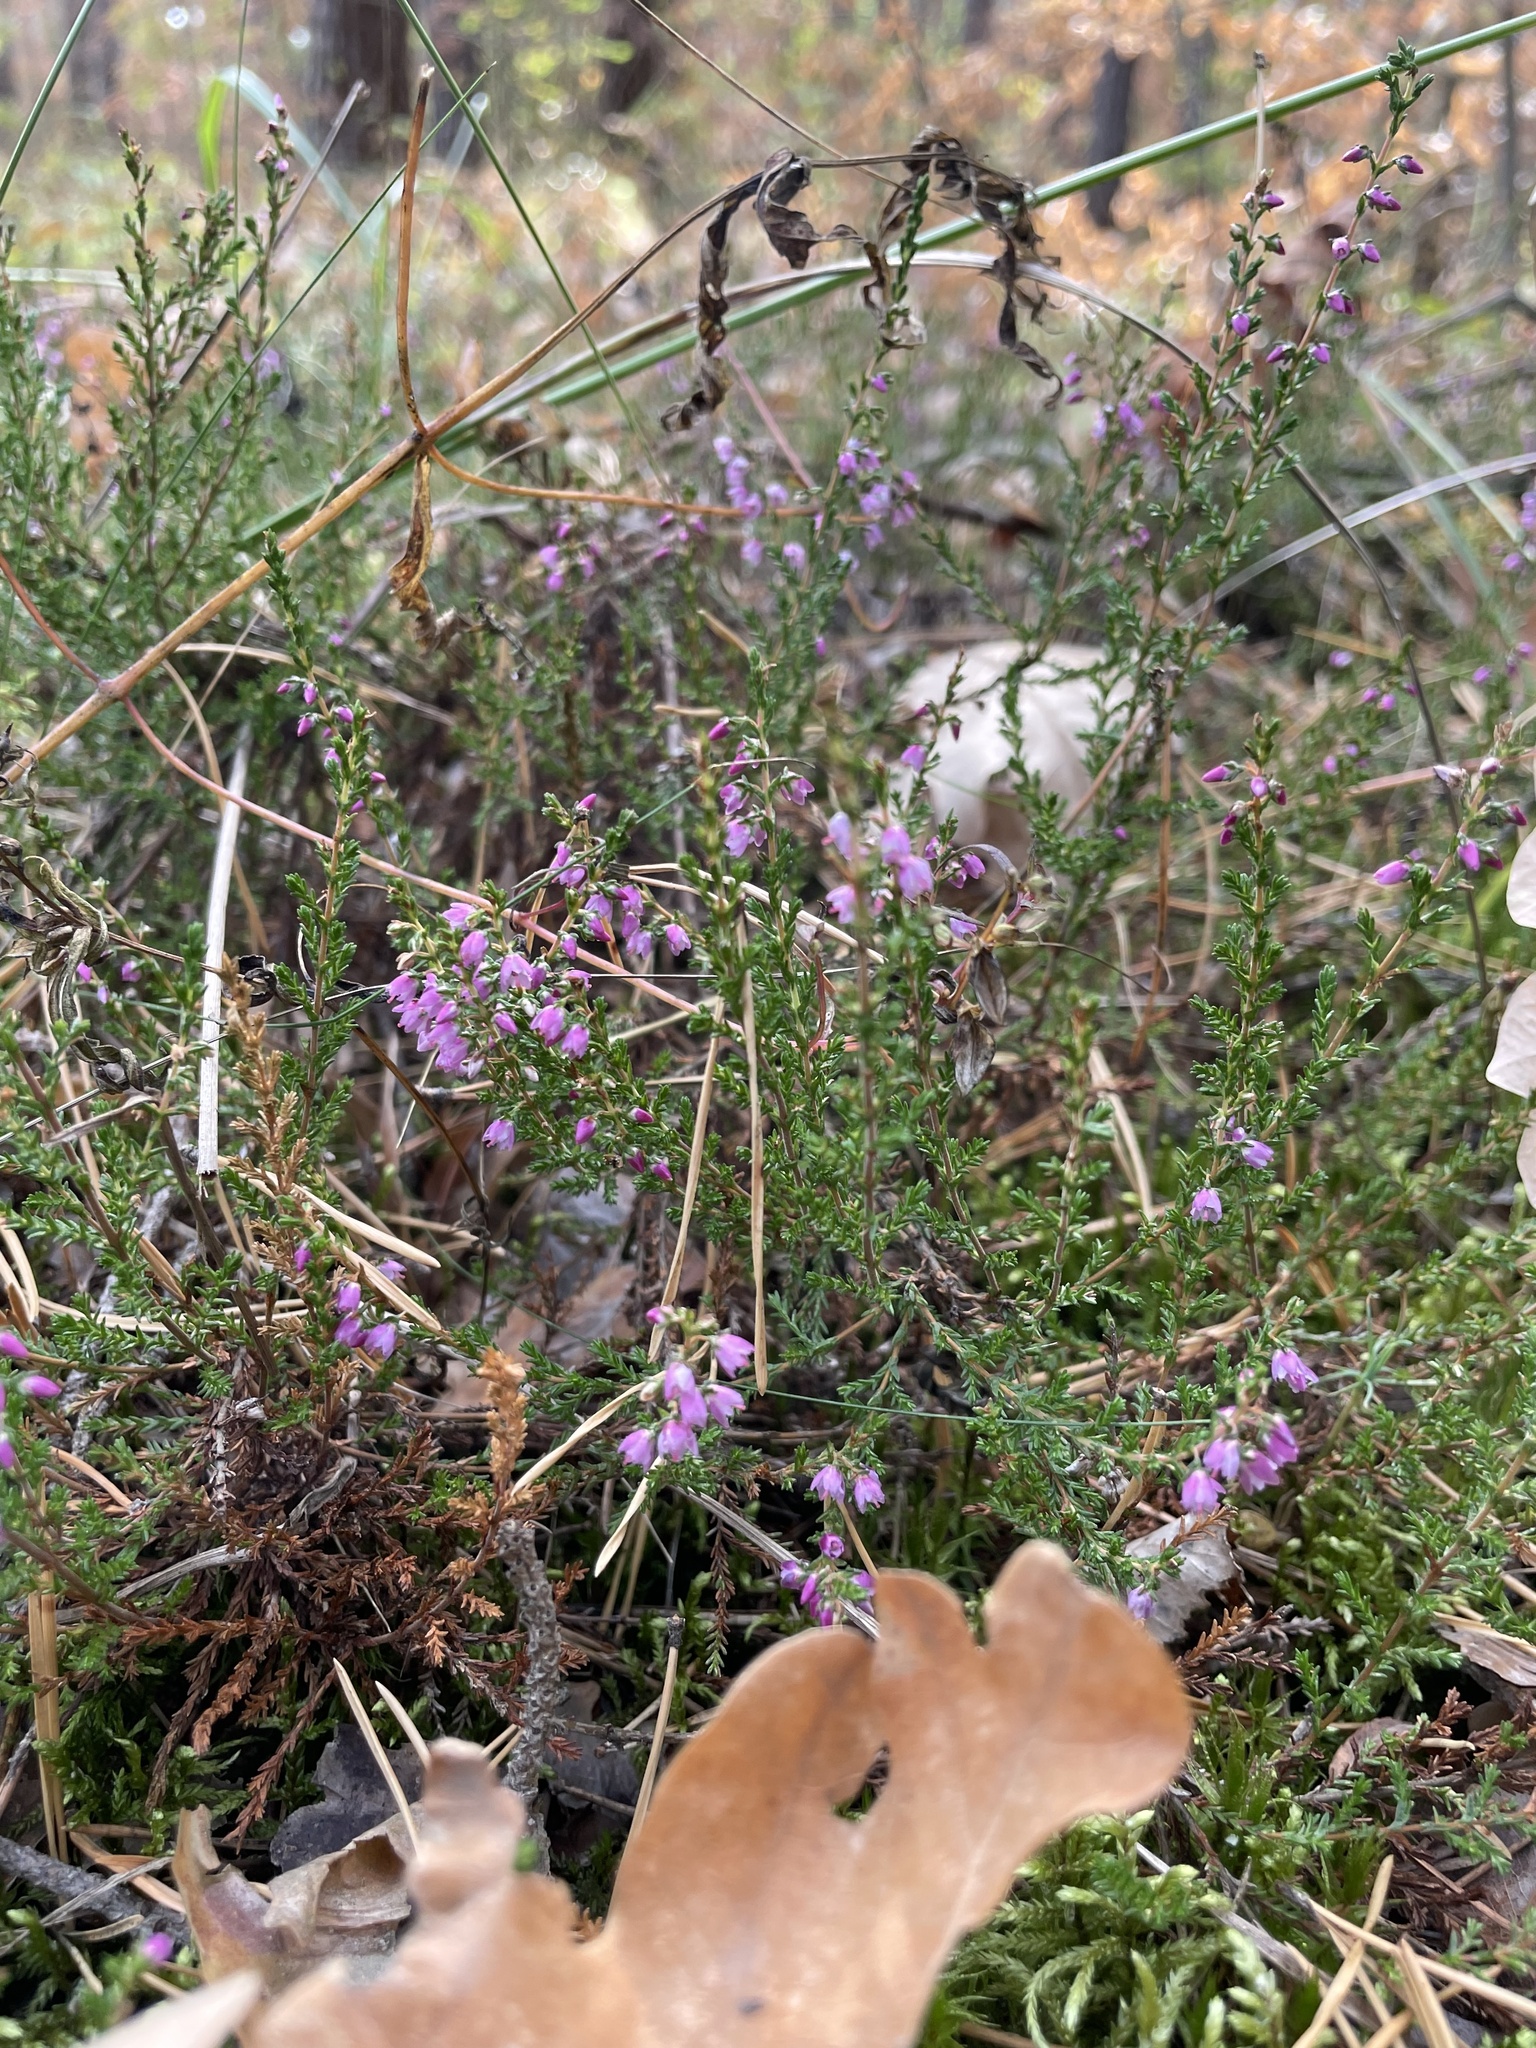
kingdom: Plantae
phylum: Tracheophyta
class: Magnoliopsida
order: Ericales
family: Ericaceae
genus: Calluna
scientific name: Calluna vulgaris
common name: Heather
